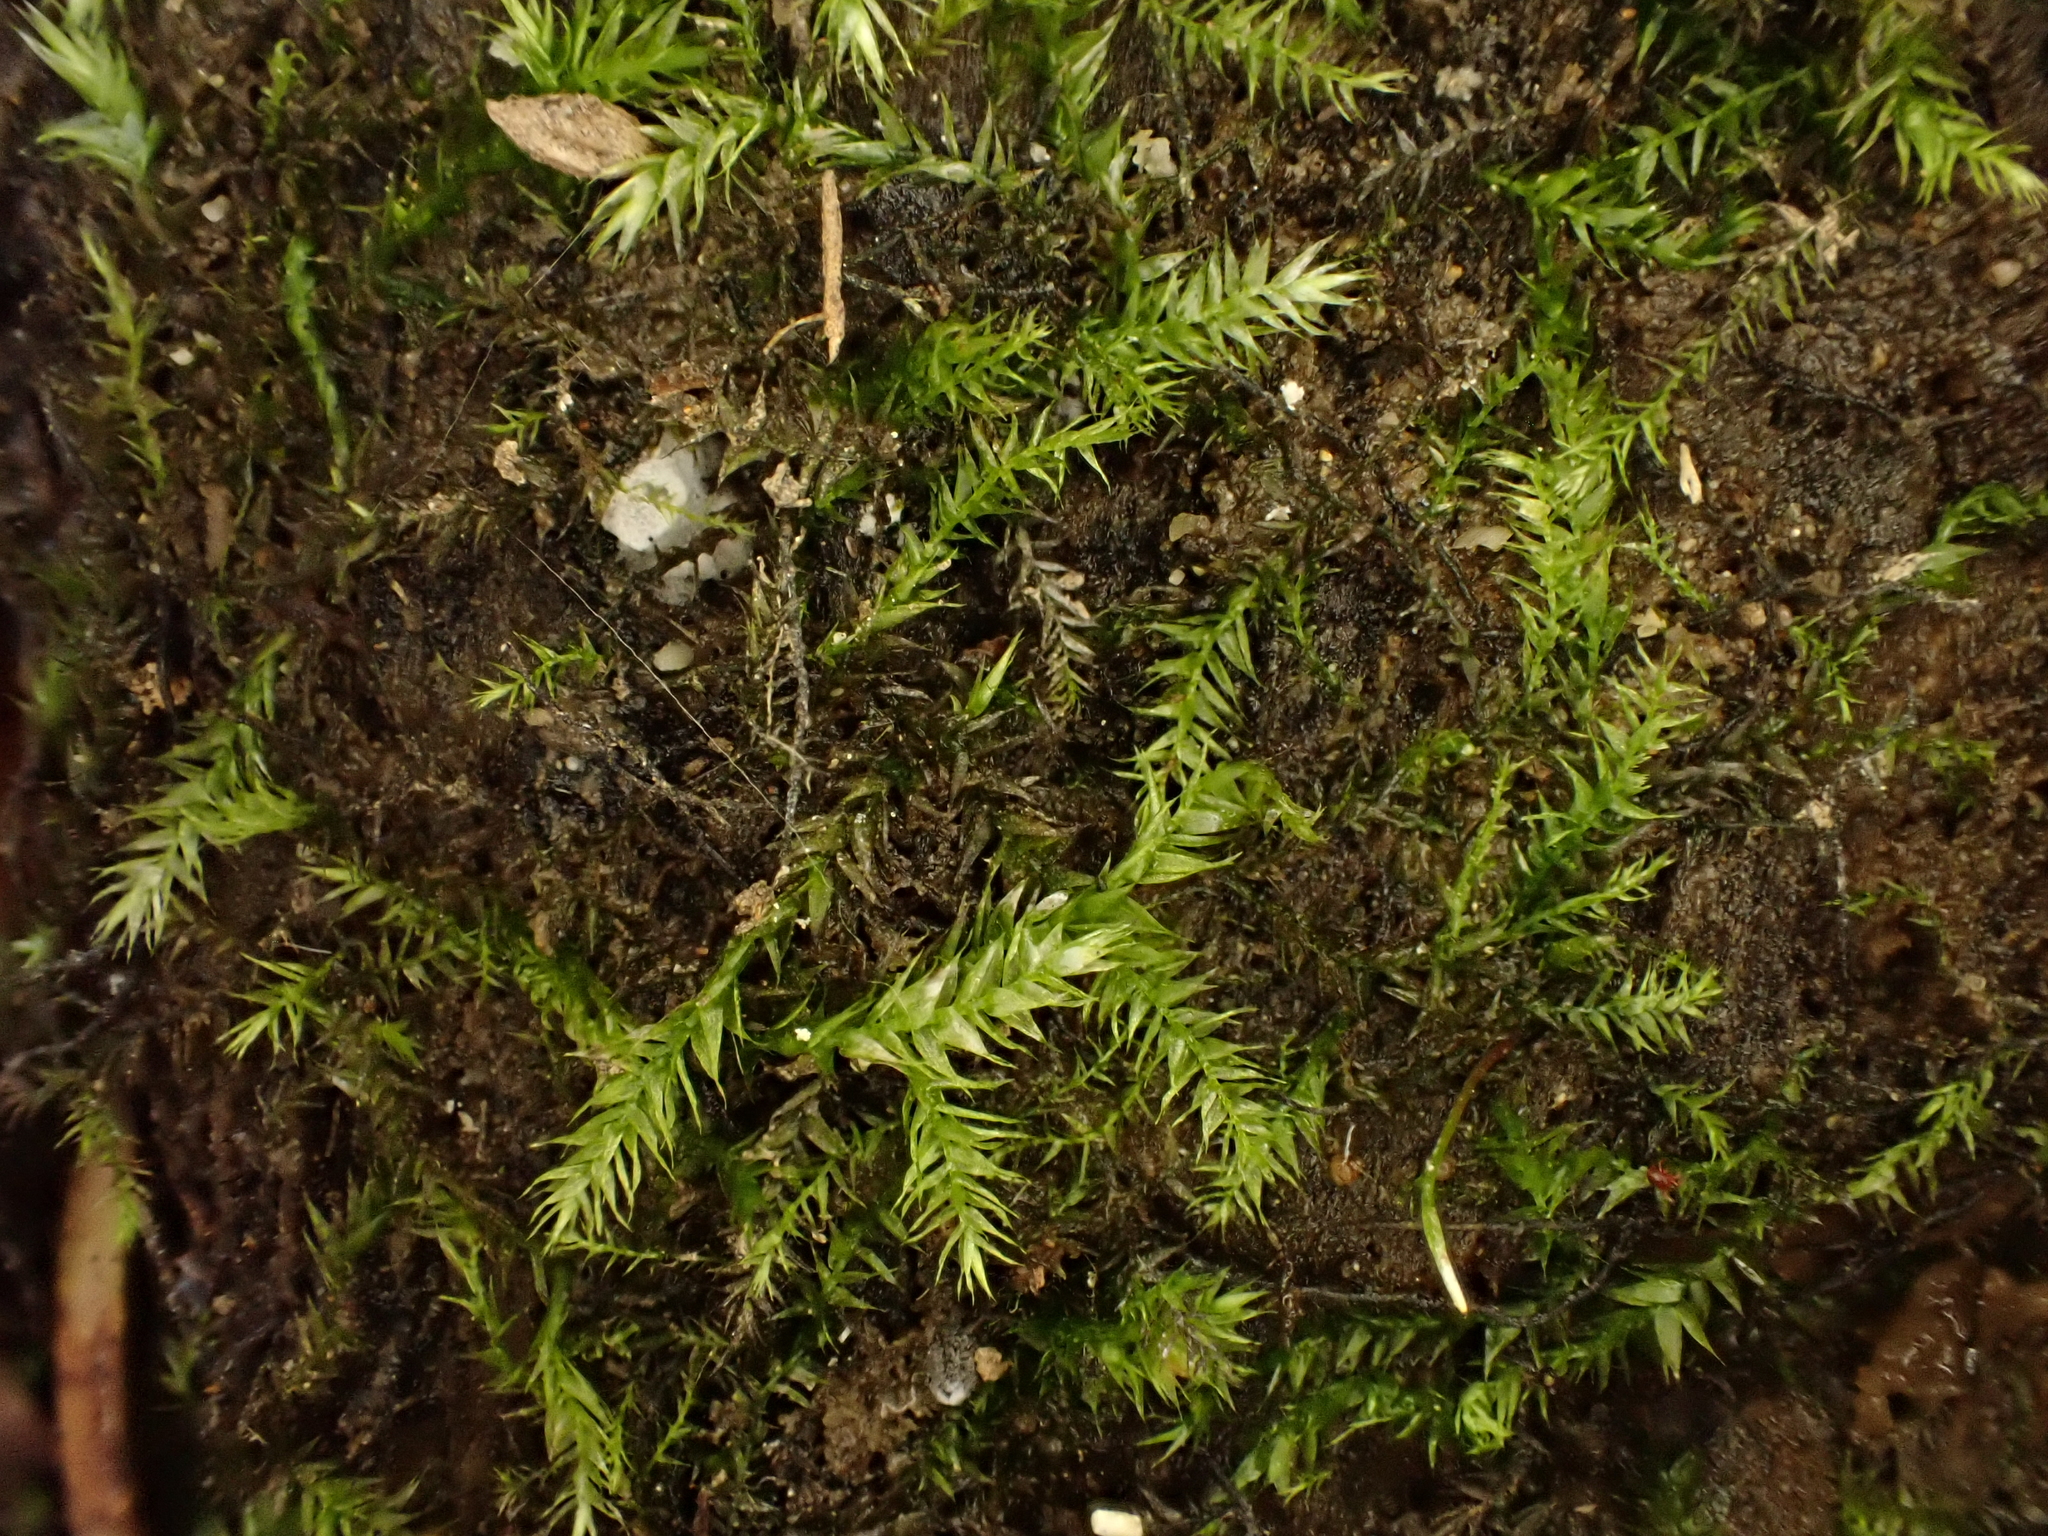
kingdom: Plantae
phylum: Bryophyta
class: Bryopsida
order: Hypnodendrales
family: Racopilaceae
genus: Racopilum
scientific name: Racopilum
